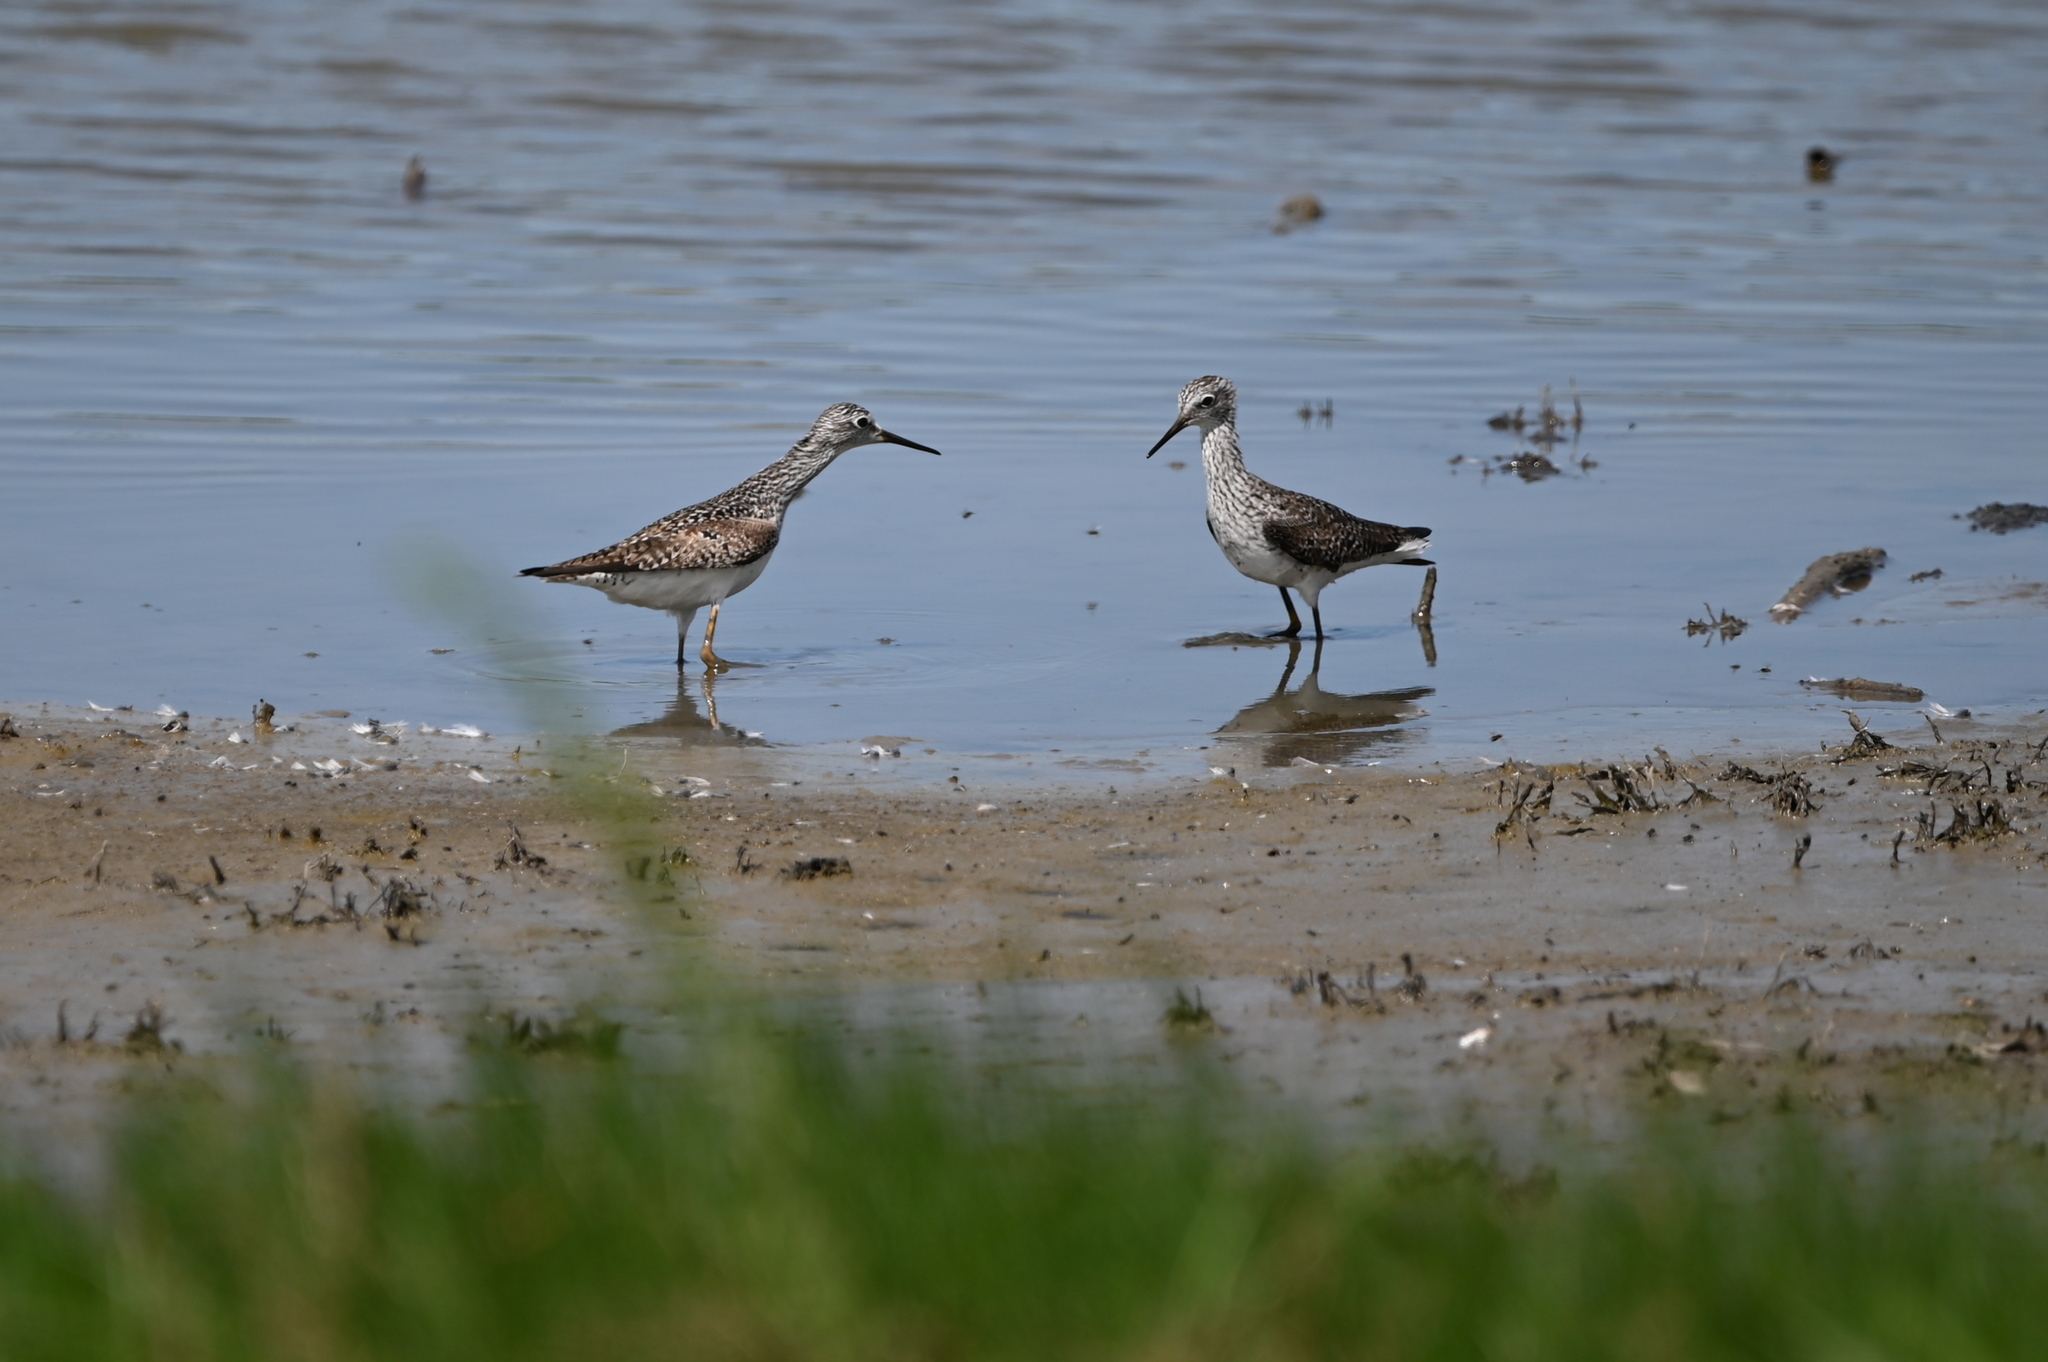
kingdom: Animalia
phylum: Chordata
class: Aves
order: Charadriiformes
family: Scolopacidae
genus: Tringa
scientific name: Tringa flavipes
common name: Lesser yellowlegs
